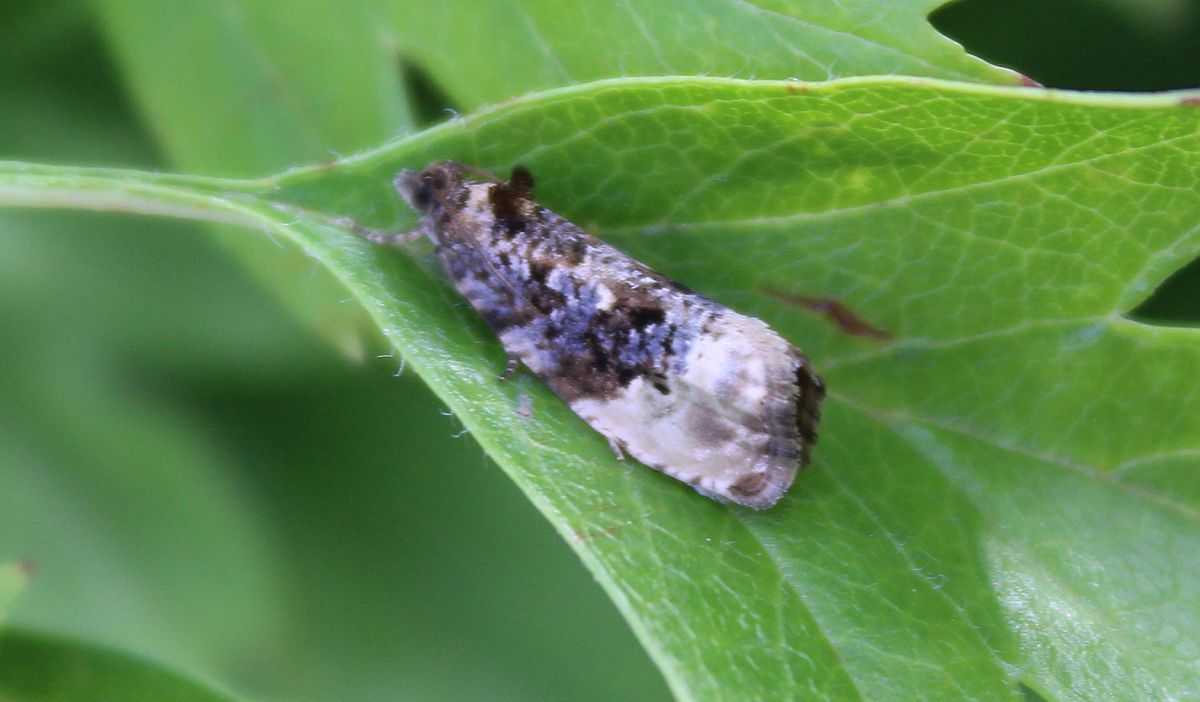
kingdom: Animalia
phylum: Arthropoda
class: Insecta
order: Lepidoptera
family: Tortricidae
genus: Hedya
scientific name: Hedya nubiferana
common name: Marbled orchard tortrix
